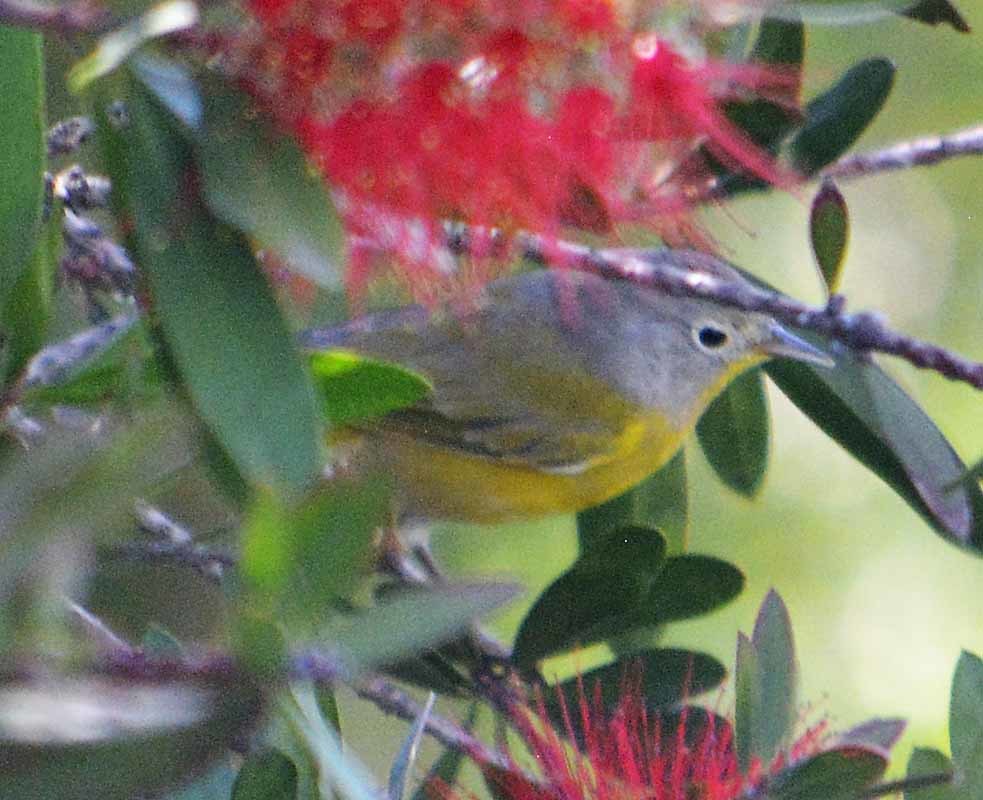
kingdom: Animalia
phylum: Chordata
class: Aves
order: Passeriformes
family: Parulidae
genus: Leiothlypis
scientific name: Leiothlypis ruficapilla
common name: Nashville warbler
